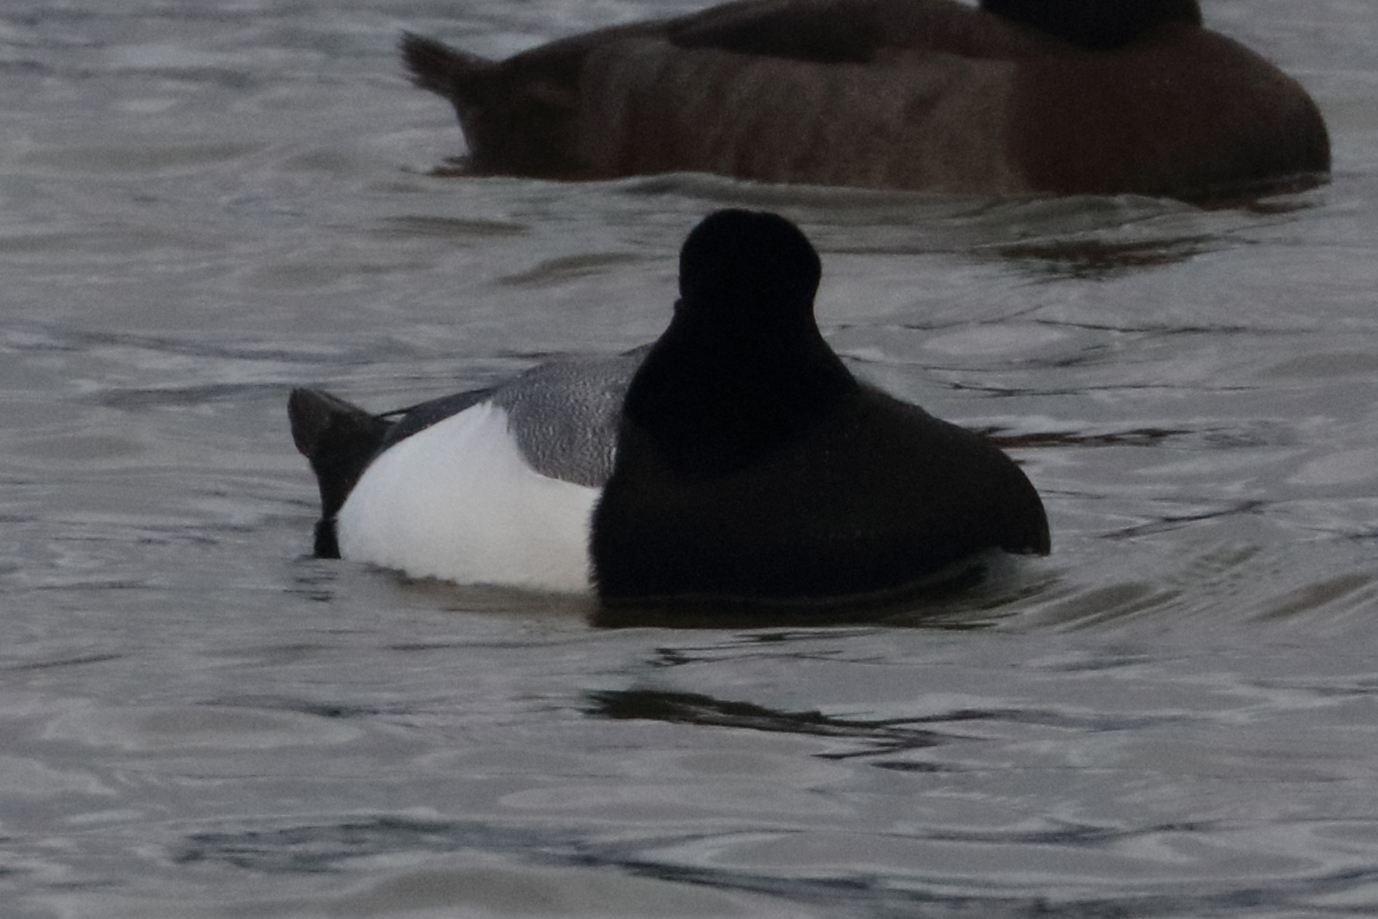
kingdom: Animalia
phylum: Chordata
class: Aves
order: Anseriformes
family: Anatidae
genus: Aythya
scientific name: Aythya marila
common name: Greater scaup
